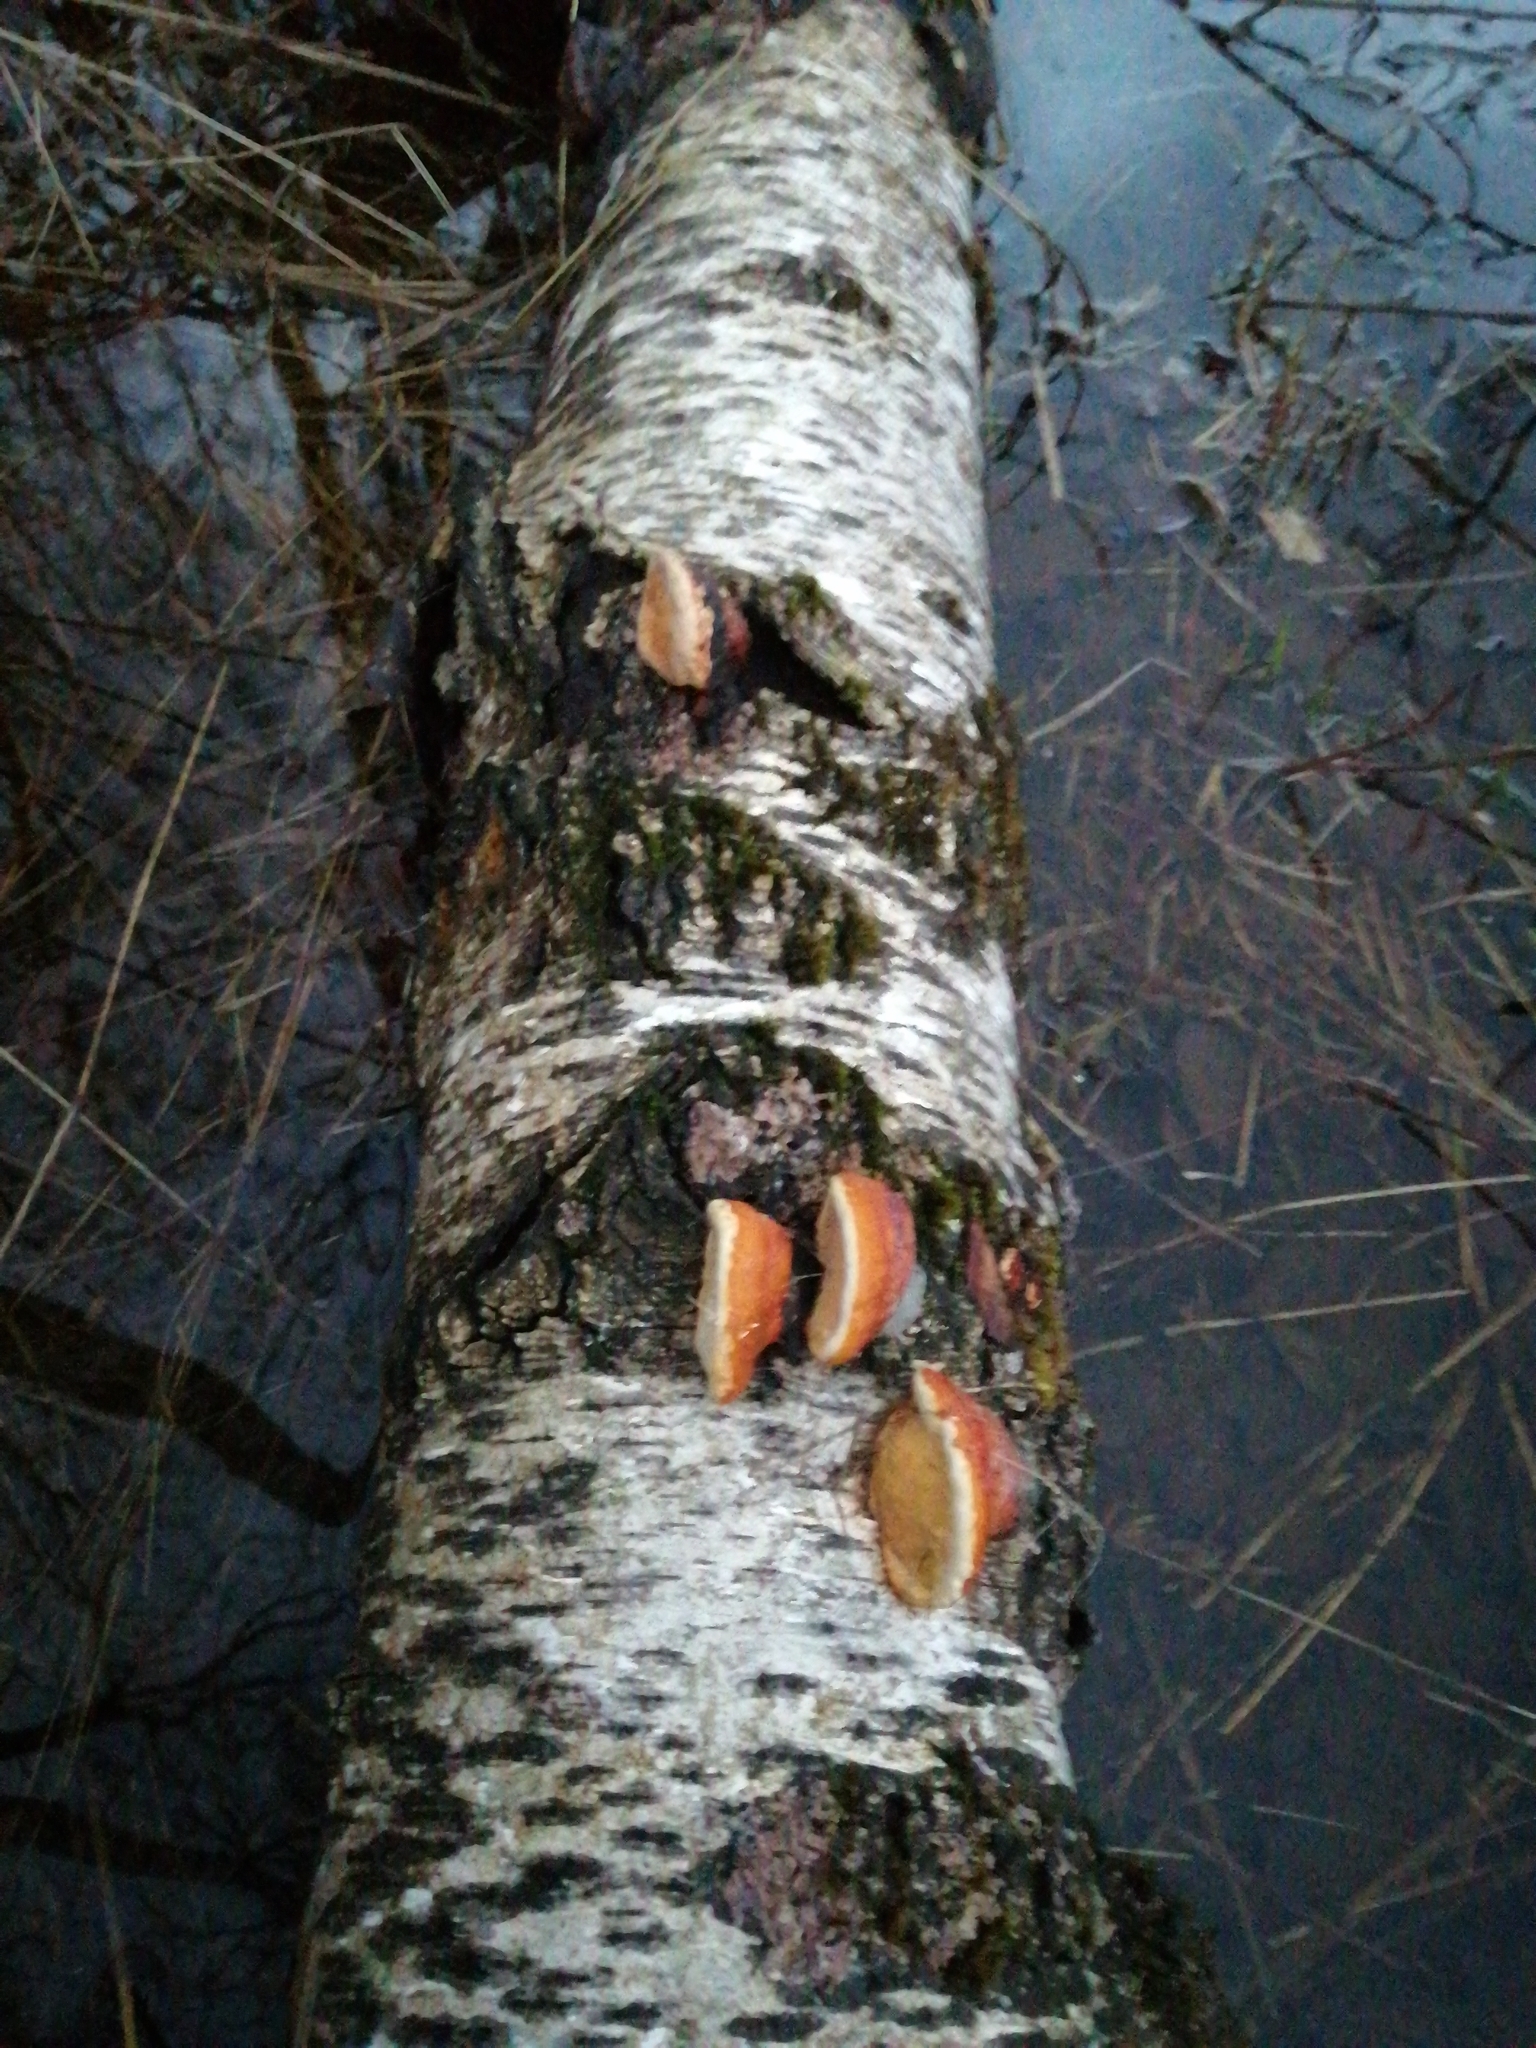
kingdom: Fungi
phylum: Basidiomycota
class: Agaricomycetes
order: Polyporales
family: Fomitopsidaceae
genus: Fomitopsis
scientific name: Fomitopsis pinicola
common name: Red-belted bracket
